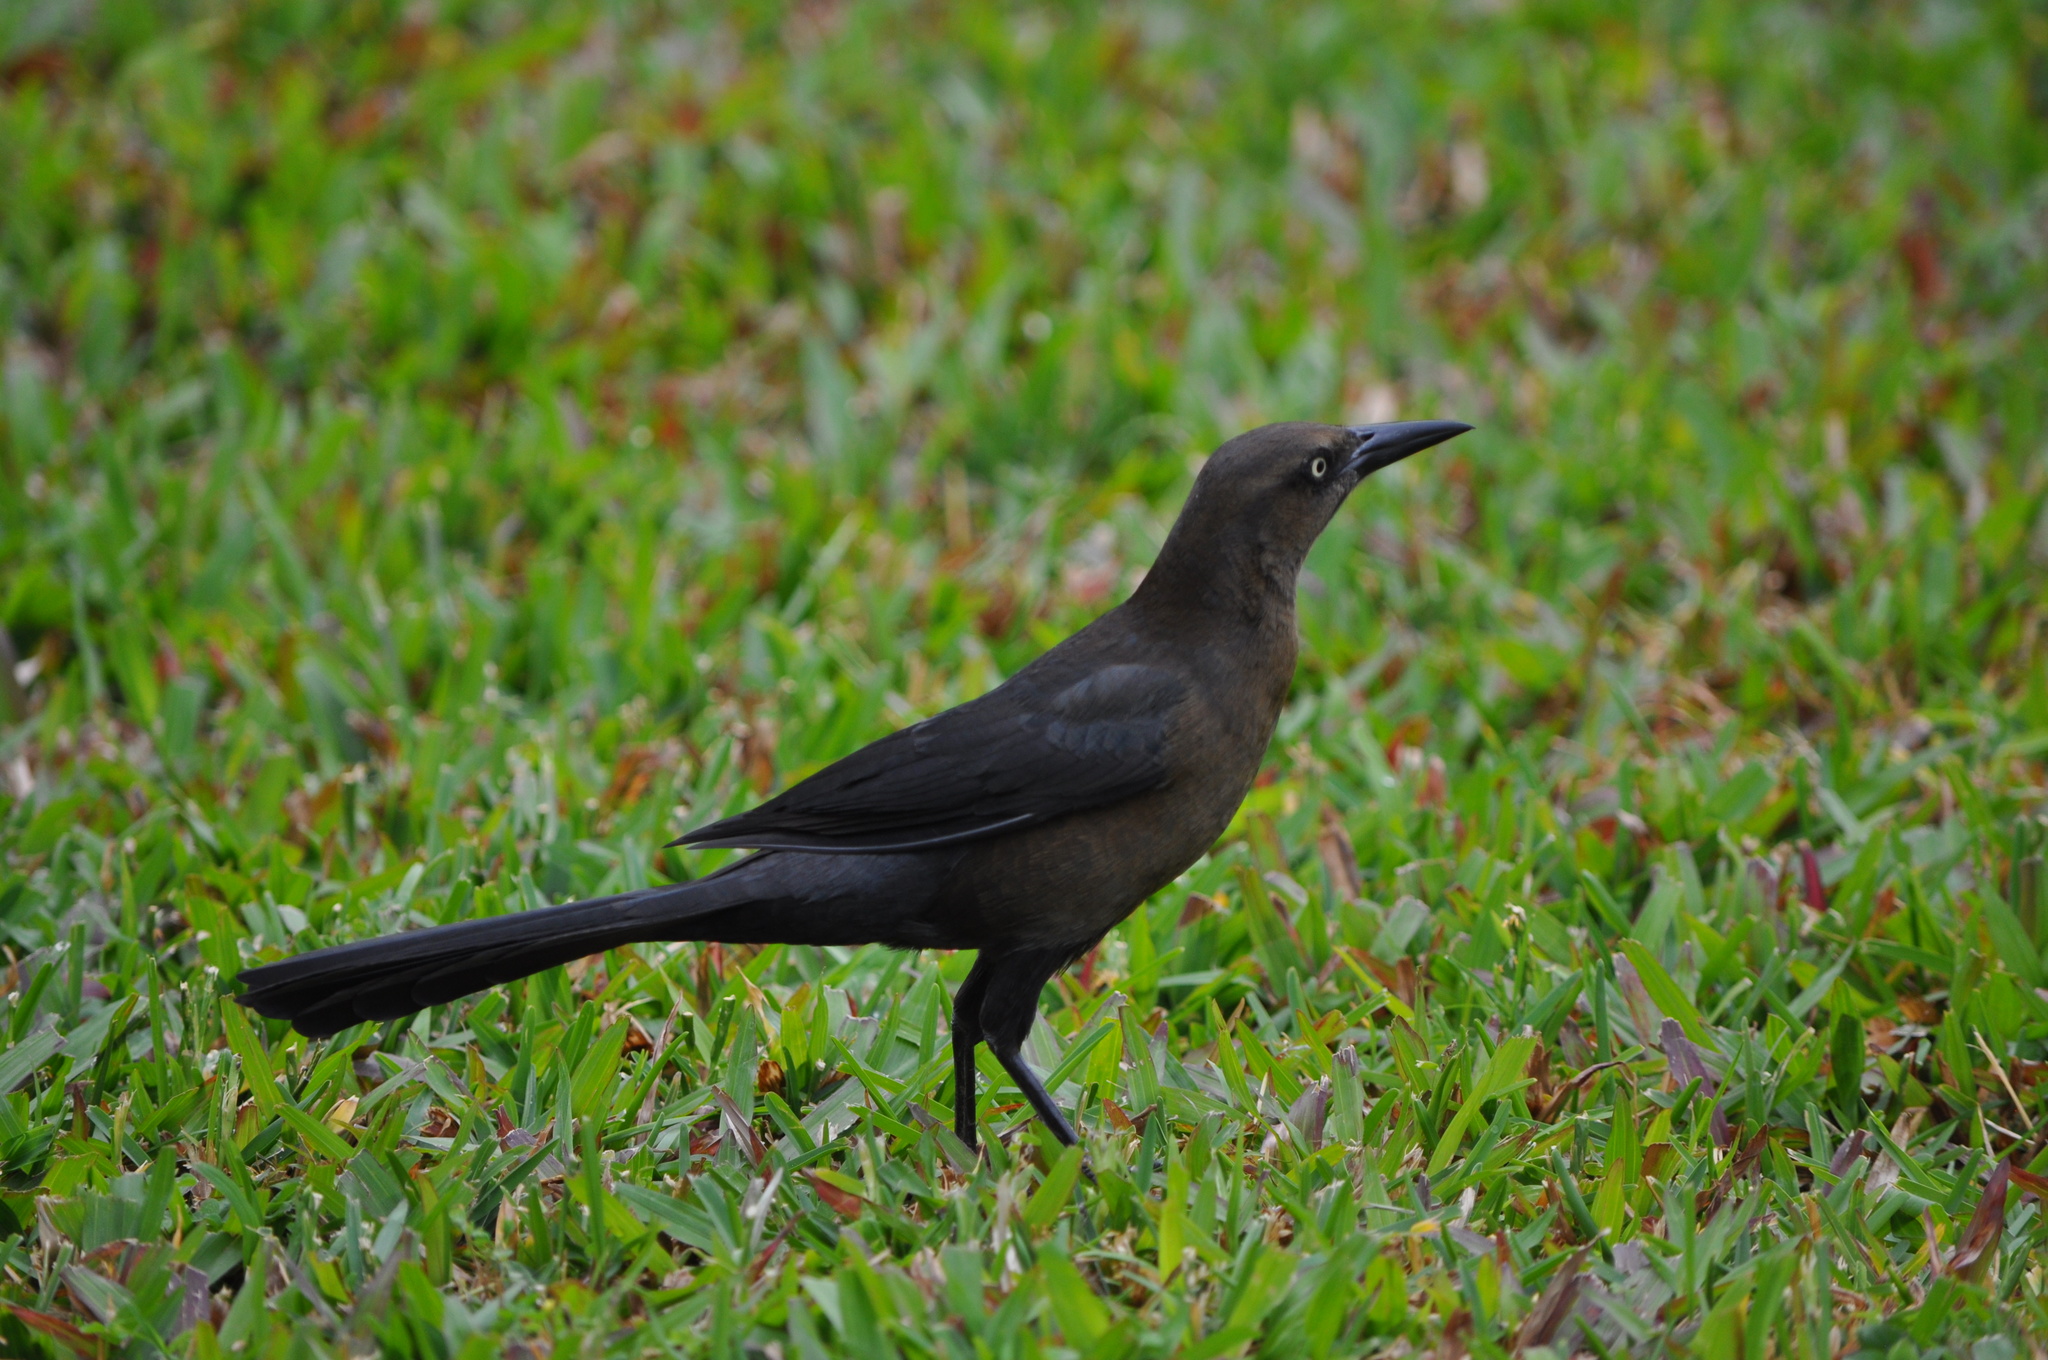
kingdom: Animalia
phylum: Chordata
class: Aves
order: Passeriformes
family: Icteridae
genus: Quiscalus
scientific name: Quiscalus mexicanus
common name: Great-tailed grackle
